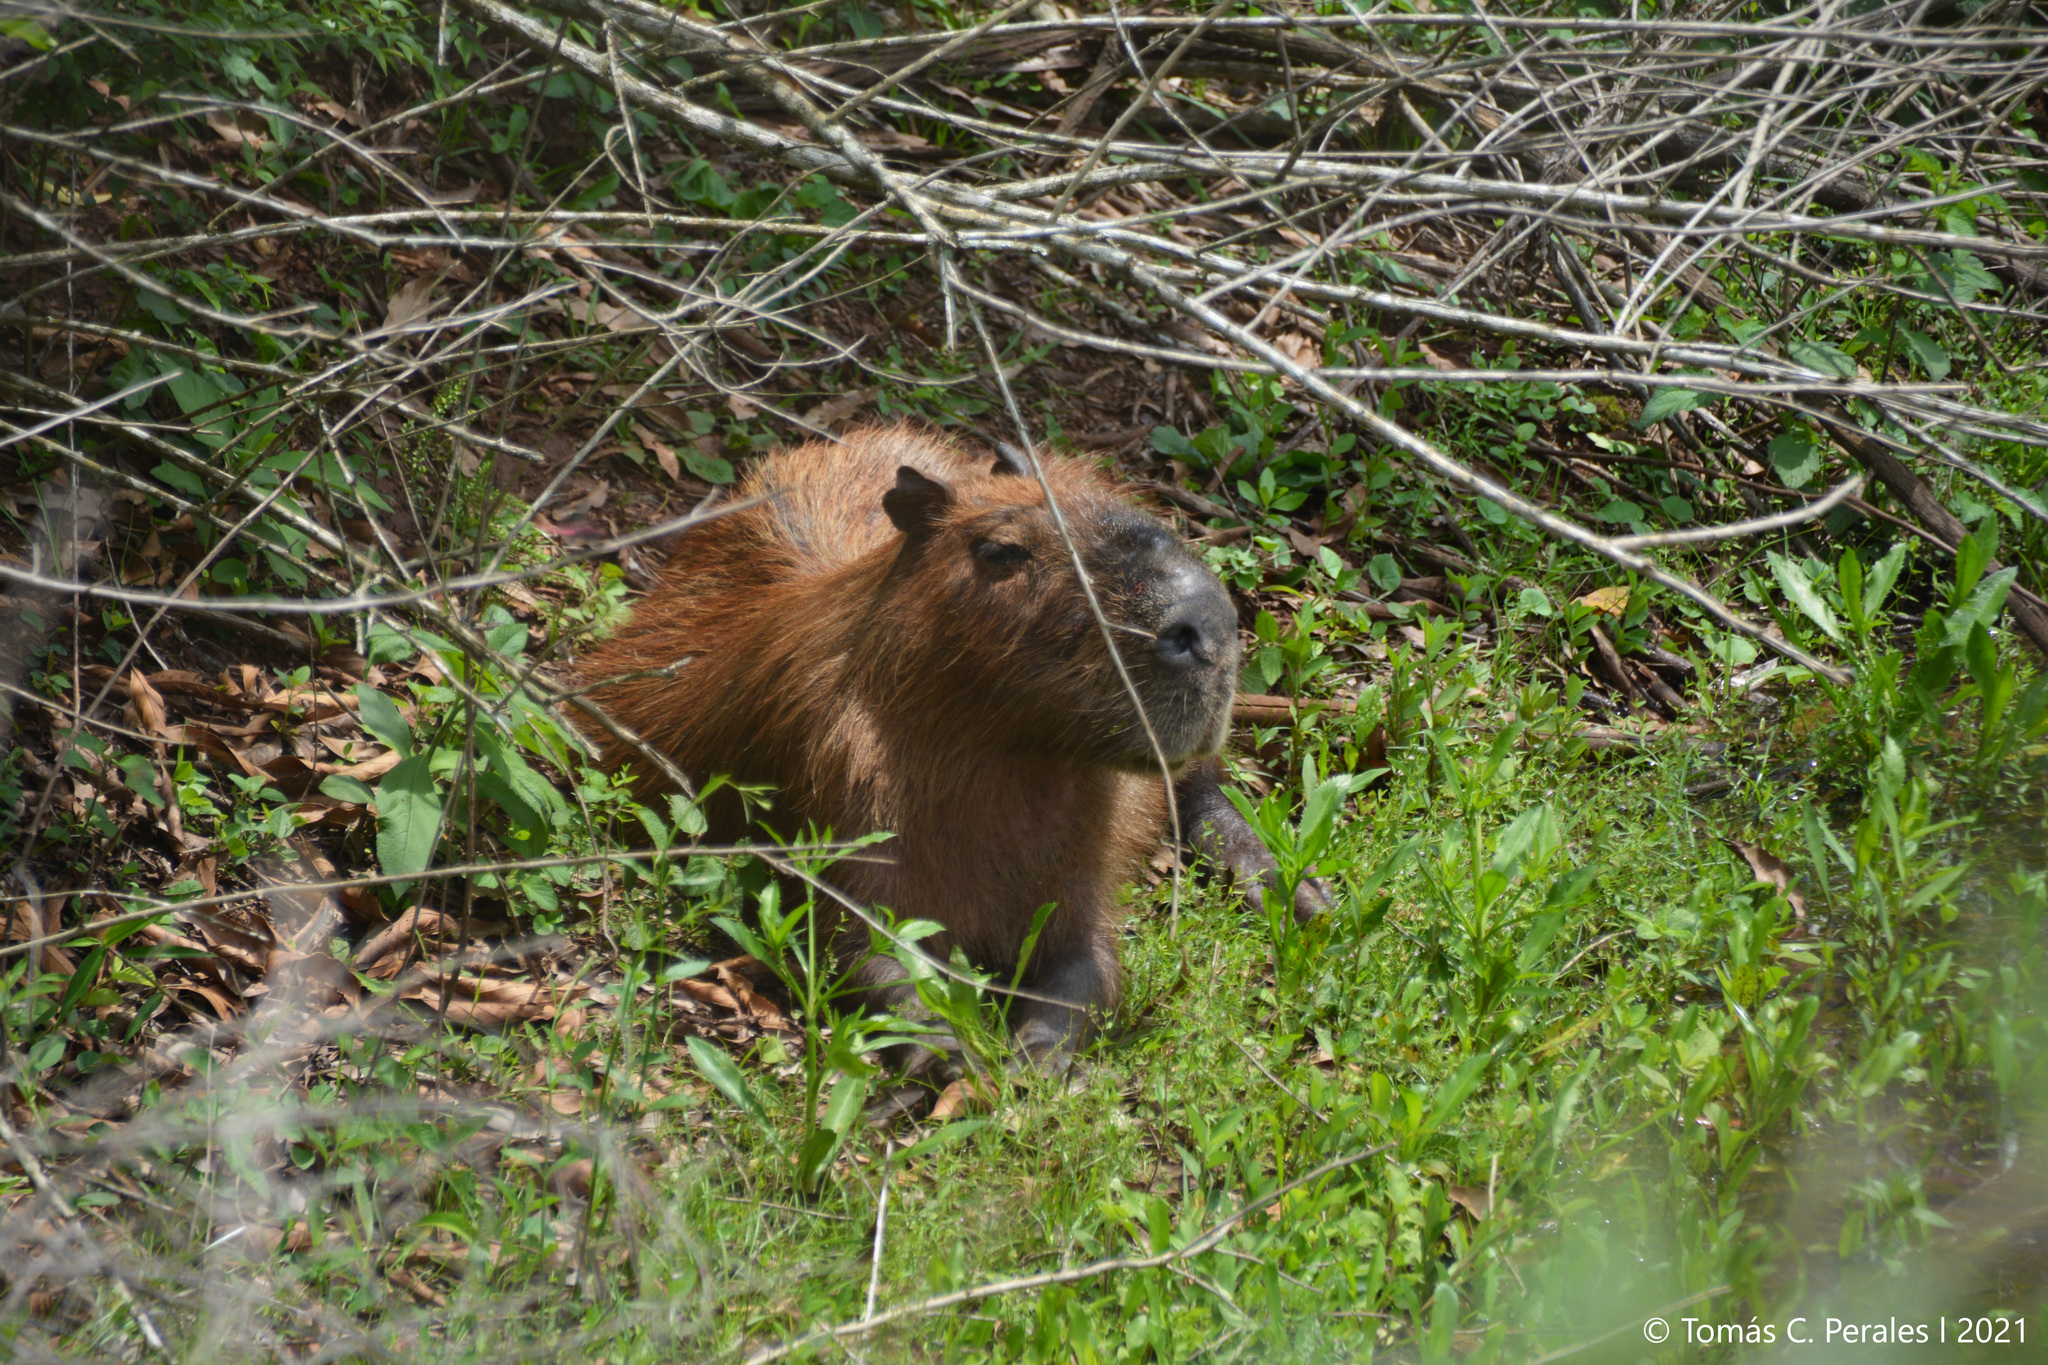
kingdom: Animalia
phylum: Chordata
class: Mammalia
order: Rodentia
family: Caviidae
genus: Hydrochoerus
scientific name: Hydrochoerus hydrochaeris
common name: Capybara
